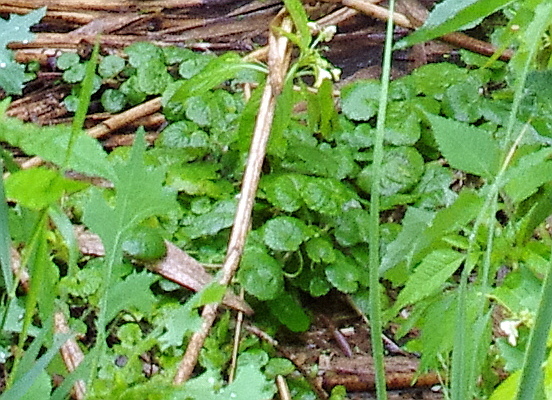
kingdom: Plantae
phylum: Tracheophyta
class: Magnoliopsida
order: Lamiales
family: Lamiaceae
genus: Glechoma
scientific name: Glechoma hederacea
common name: Ground ivy
